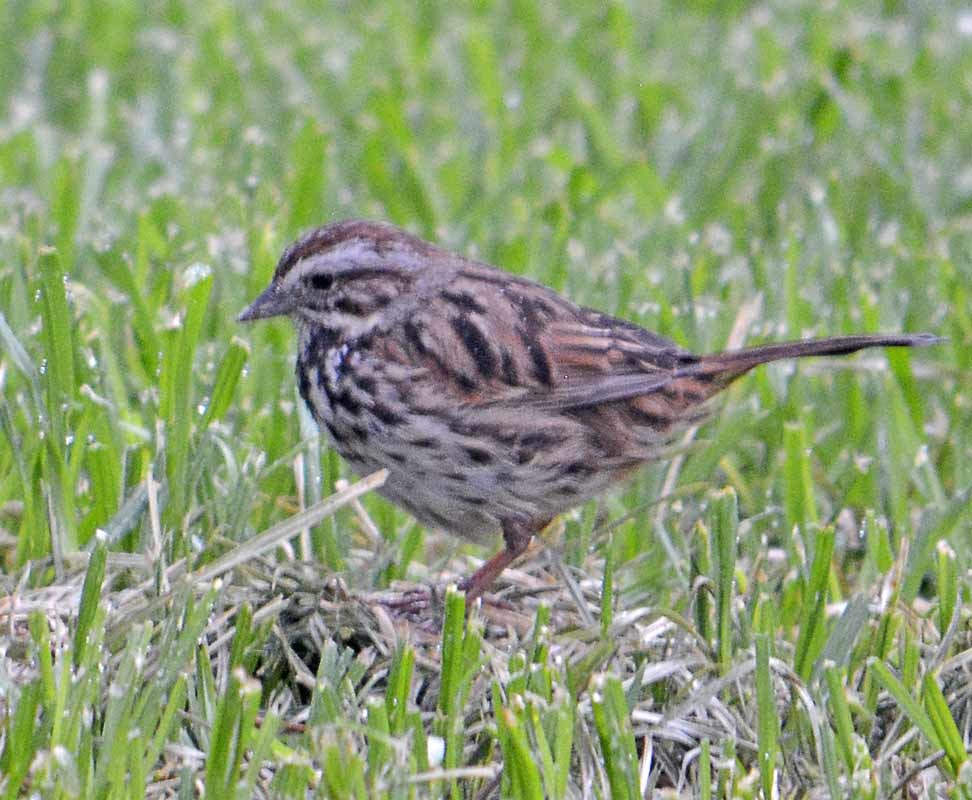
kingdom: Animalia
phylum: Chordata
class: Aves
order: Passeriformes
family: Passerellidae
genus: Melospiza
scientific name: Melospiza melodia
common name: Song sparrow
